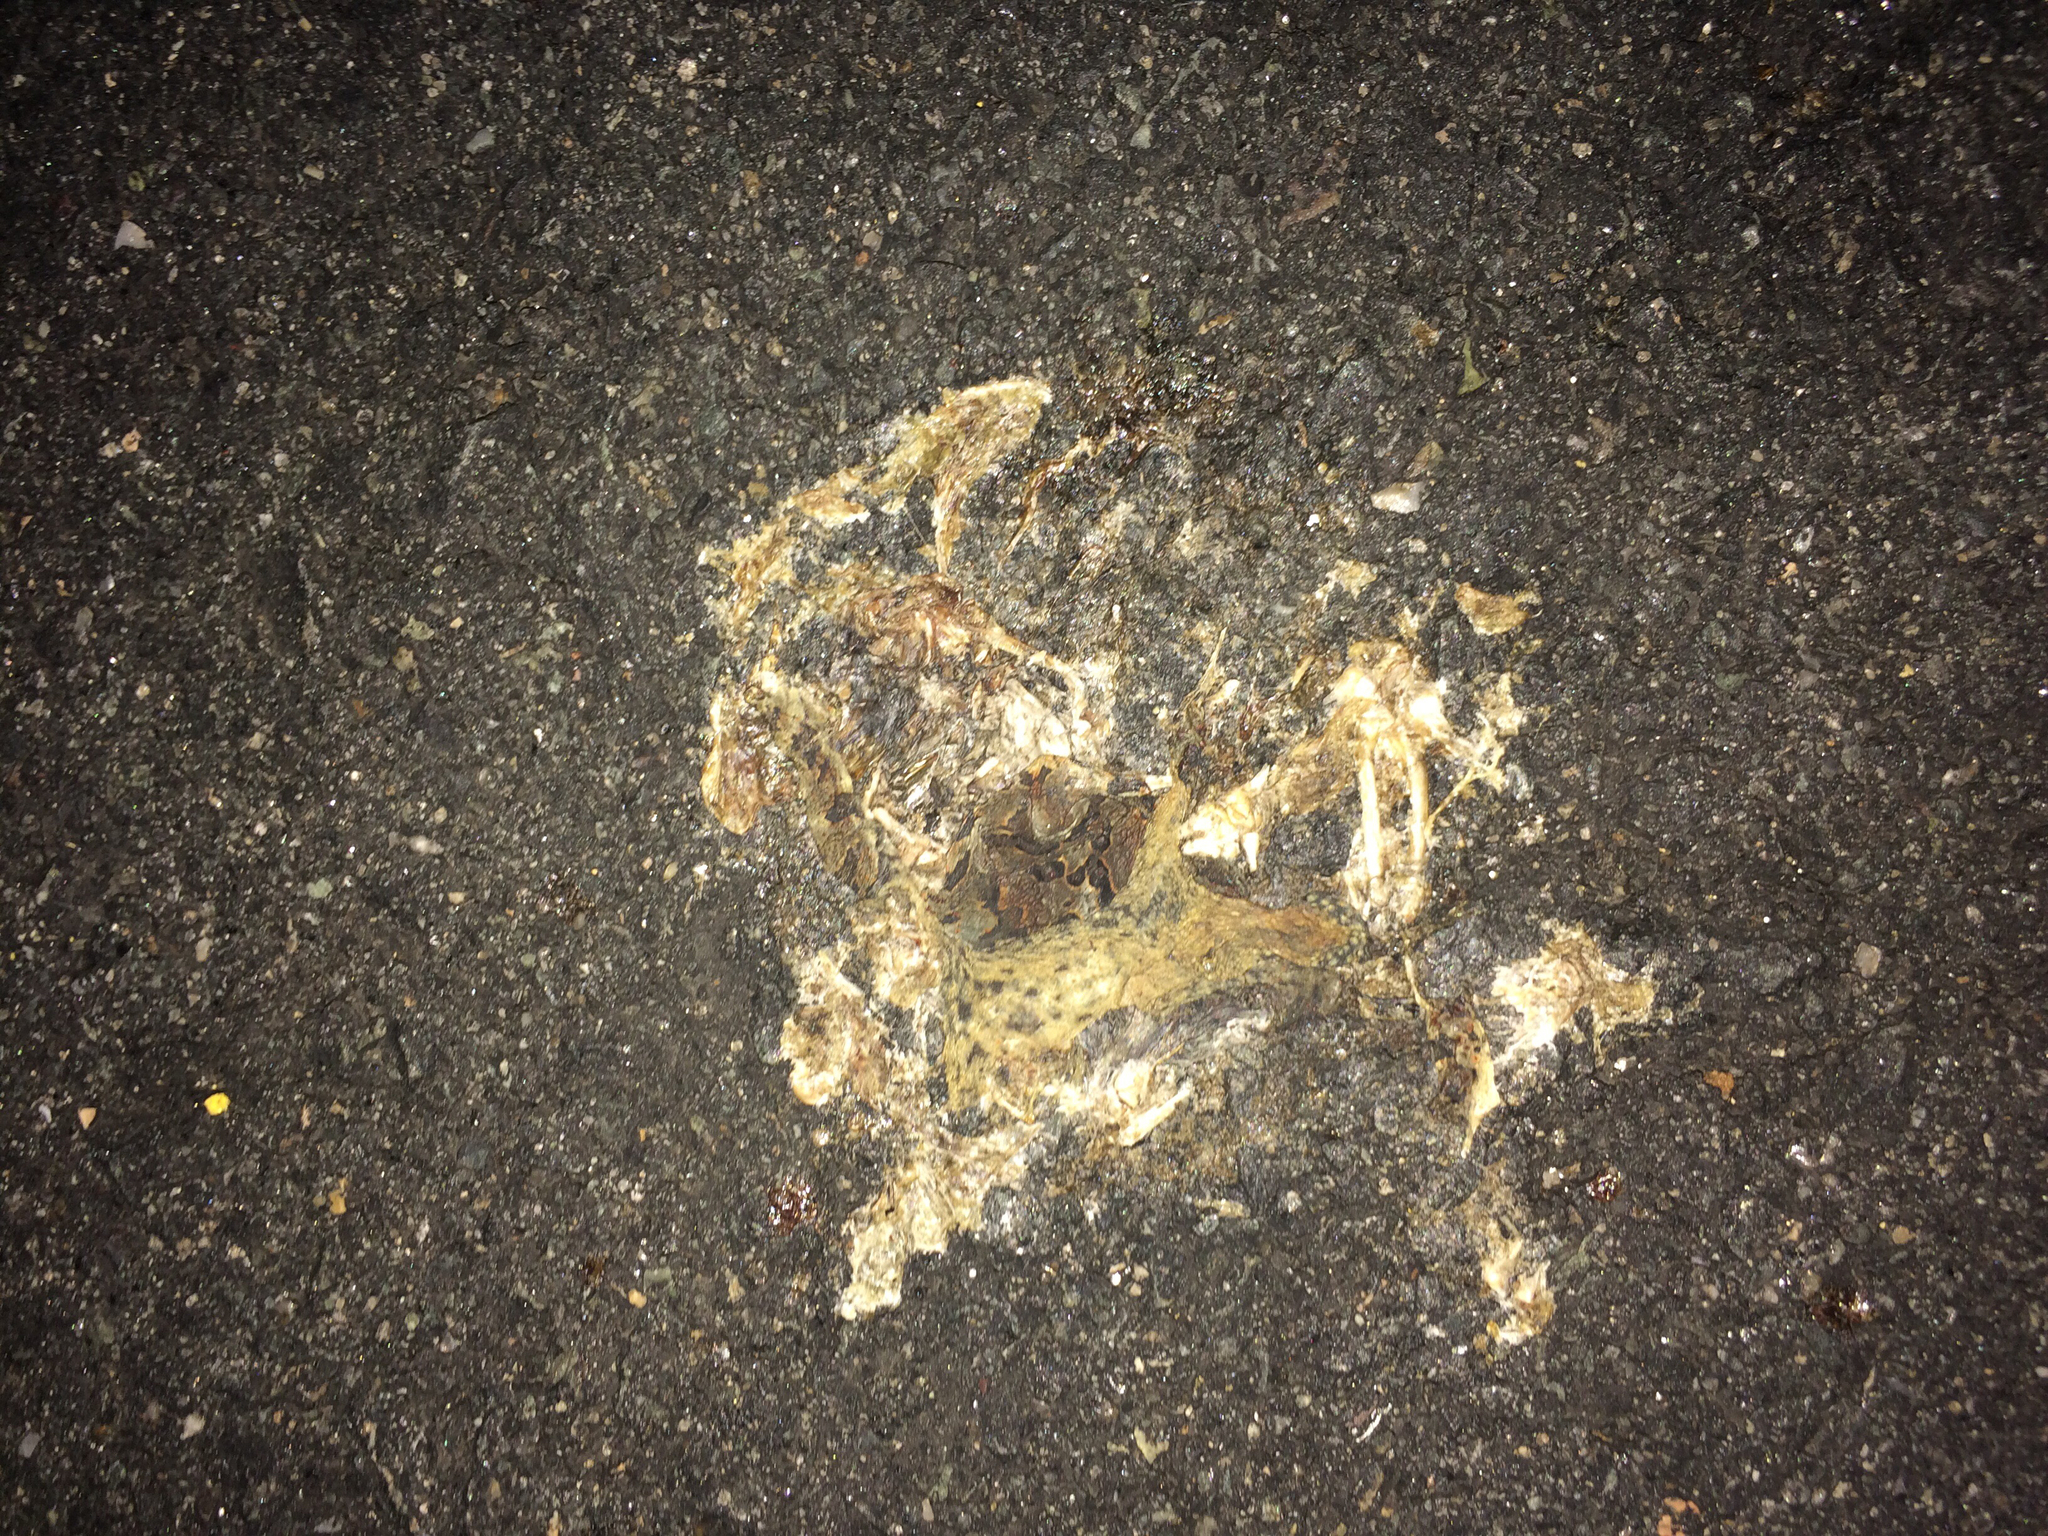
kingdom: Animalia
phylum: Chordata
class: Amphibia
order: Anura
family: Bufonidae
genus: Anaxyrus
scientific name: Anaxyrus americanus
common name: American toad
